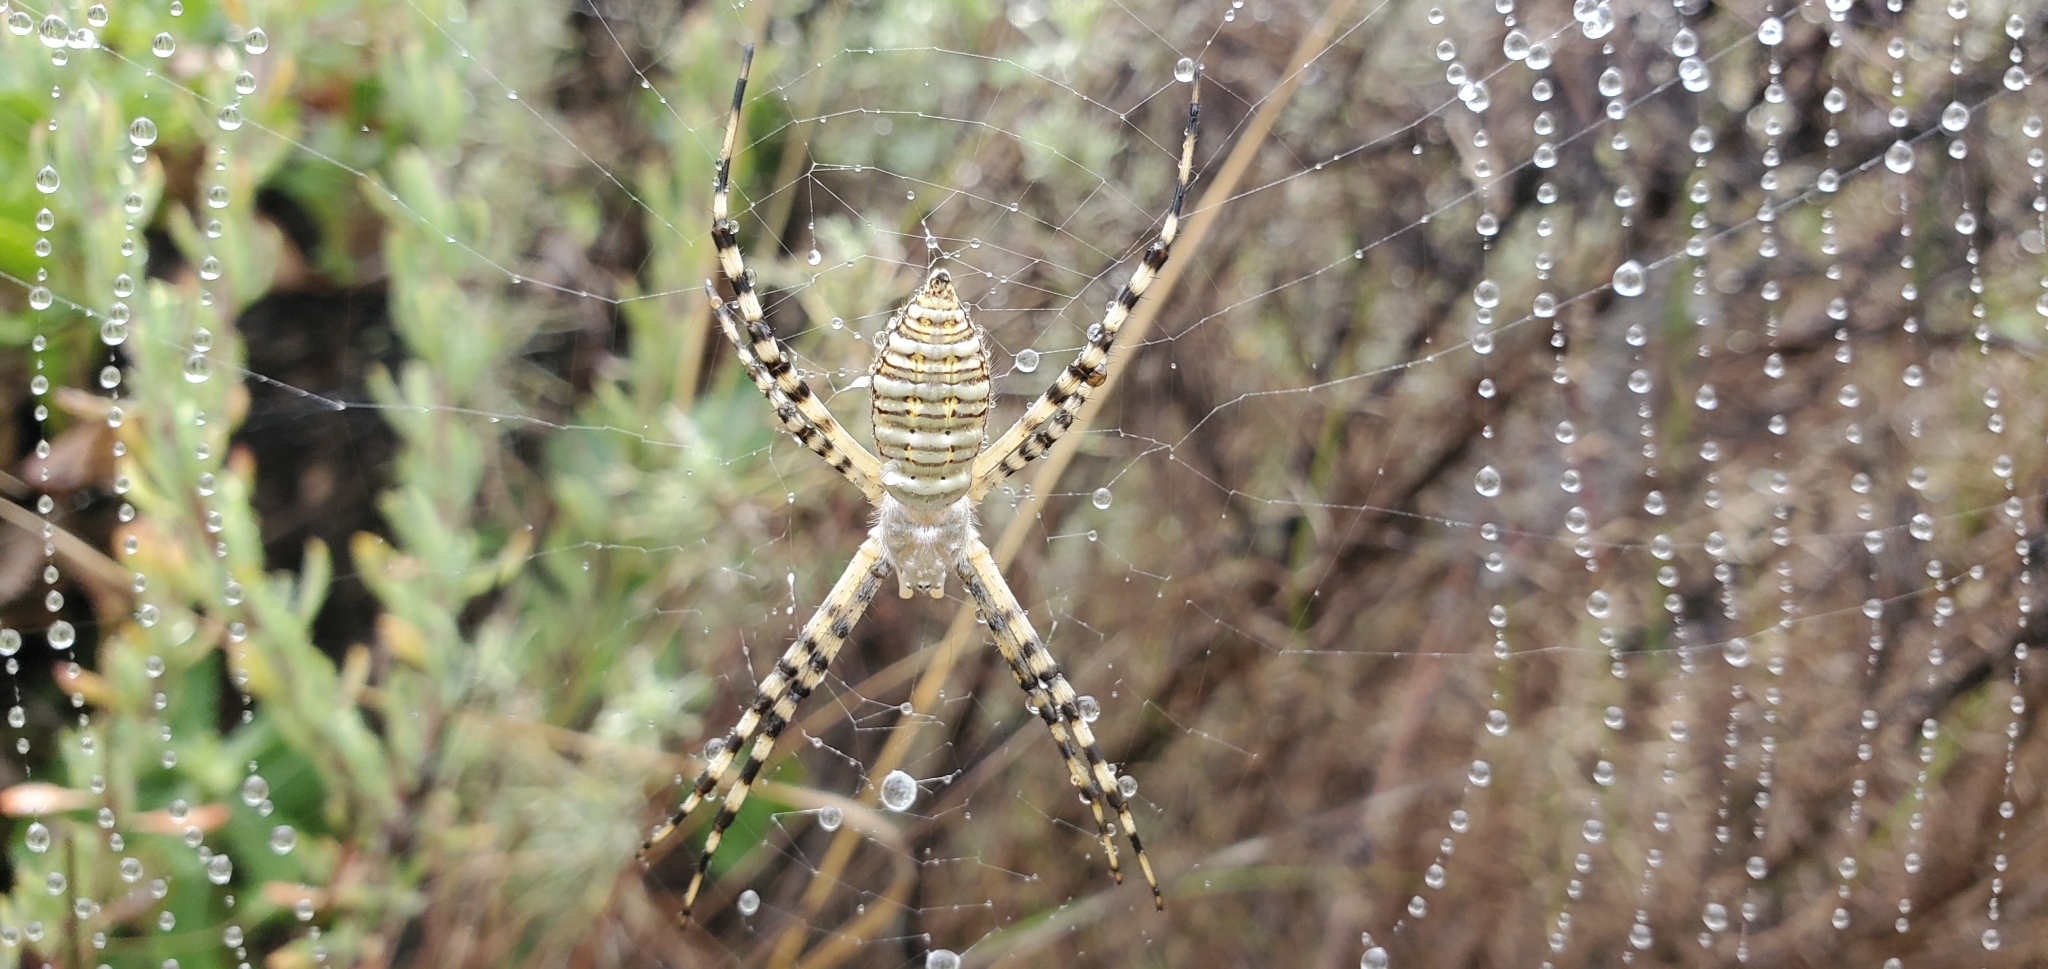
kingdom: Animalia
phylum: Arthropoda
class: Arachnida
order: Araneae
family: Araneidae
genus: Argiope
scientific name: Argiope trifasciata
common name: Banded garden spider
